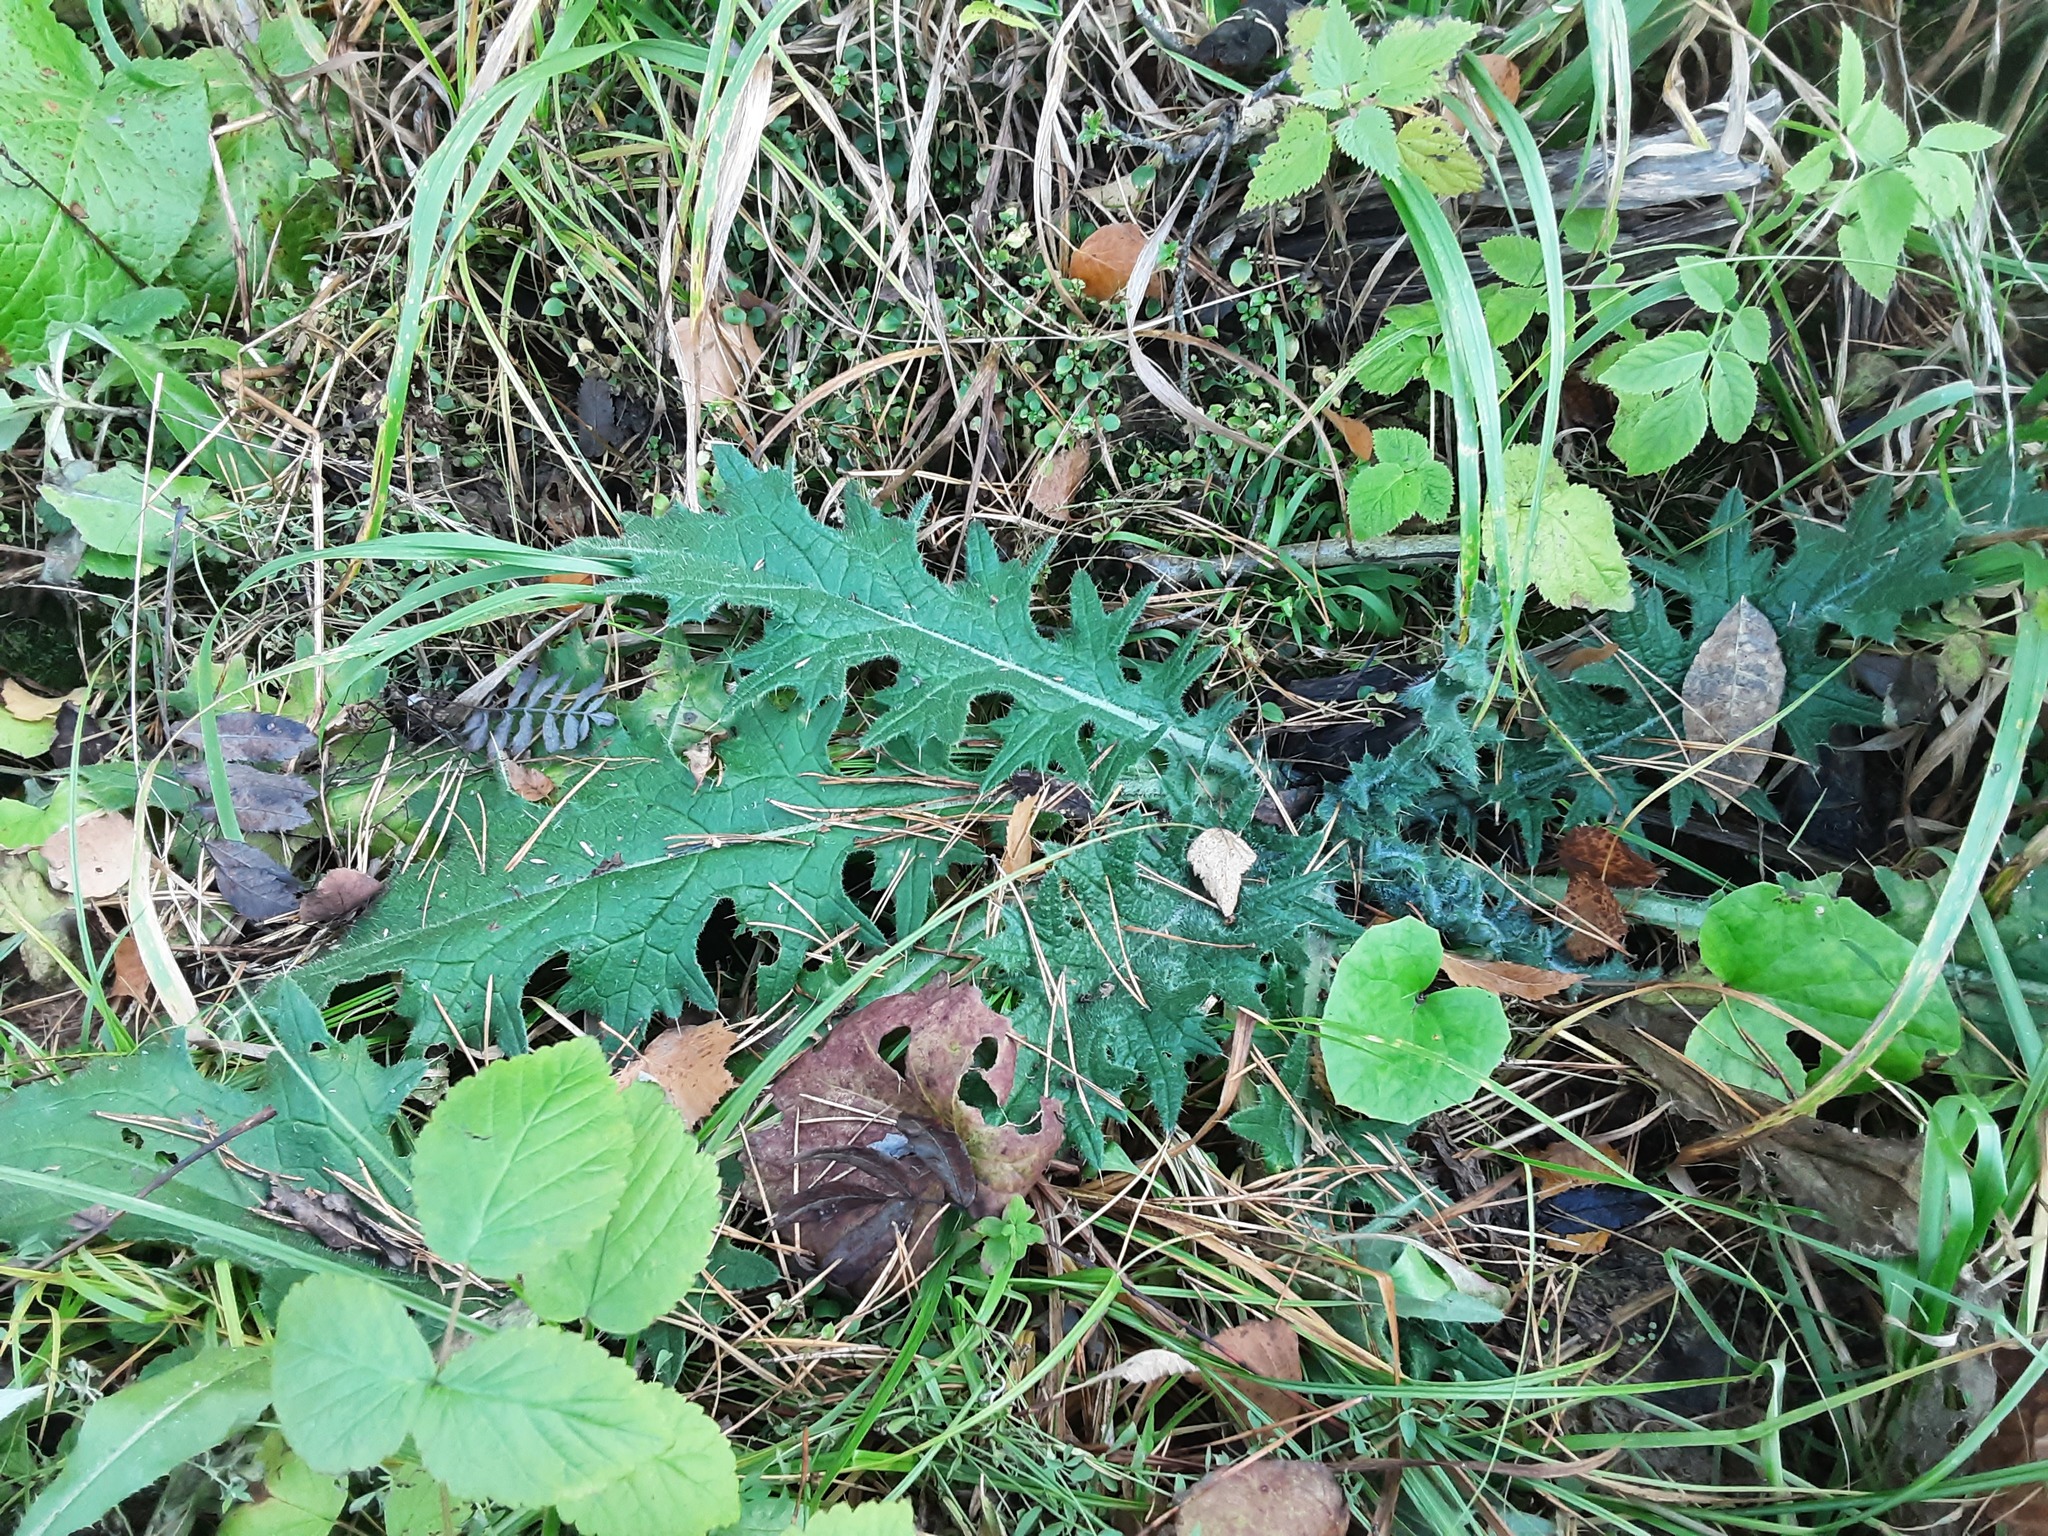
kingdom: Plantae
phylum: Tracheophyta
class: Magnoliopsida
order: Asterales
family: Asteraceae
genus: Cirsium
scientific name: Cirsium vulgare
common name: Bull thistle
